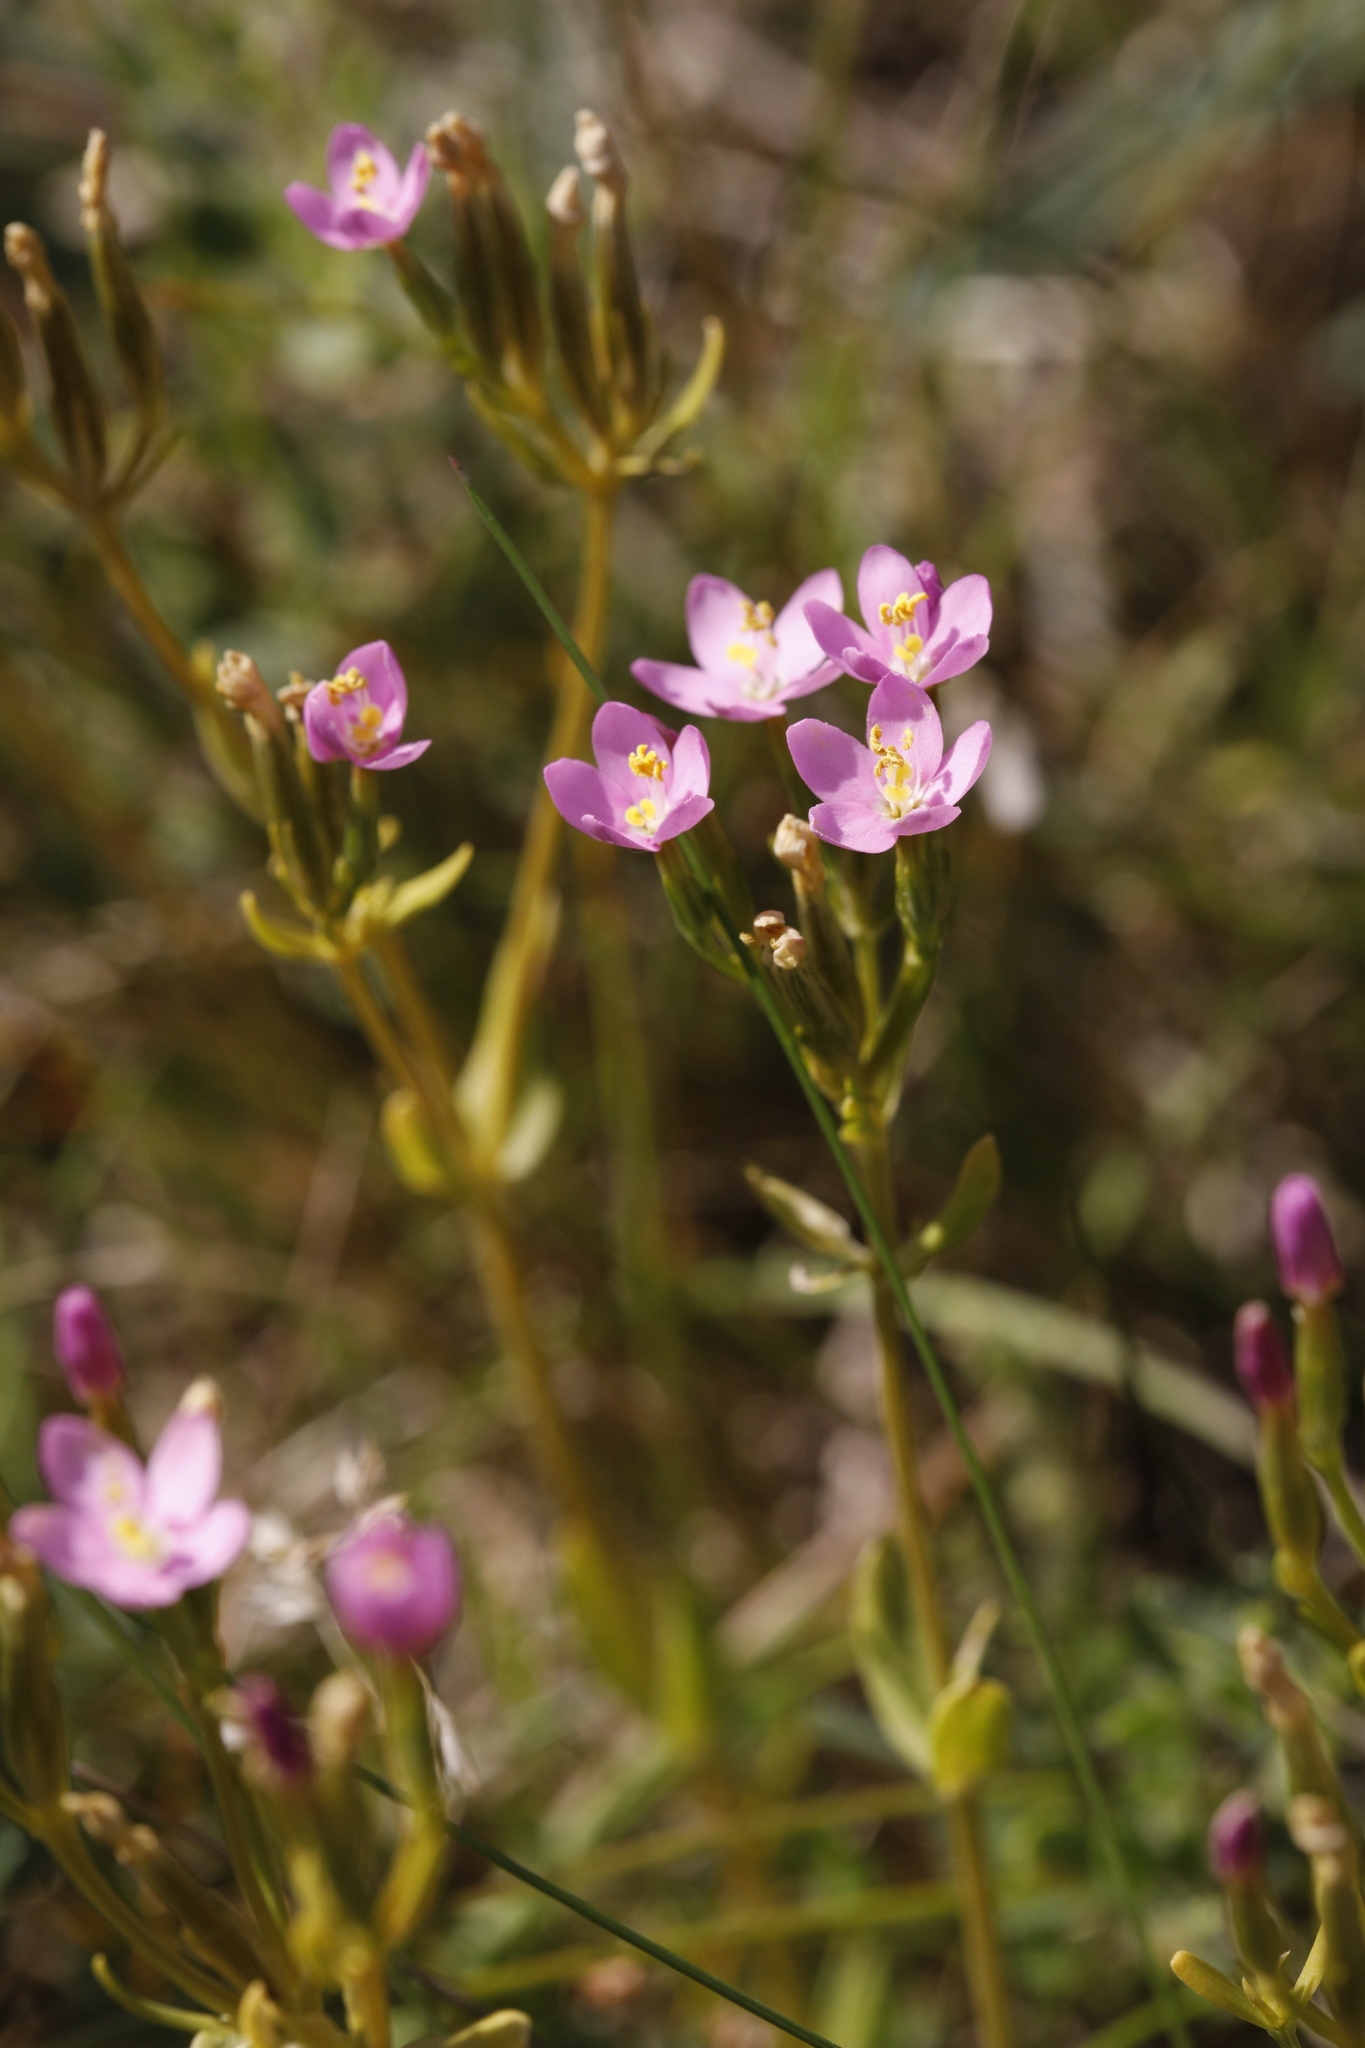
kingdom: Plantae
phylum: Tracheophyta
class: Magnoliopsida
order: Gentianales
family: Gentianaceae
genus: Centaurium
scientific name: Centaurium erythraea
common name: Common centaury
